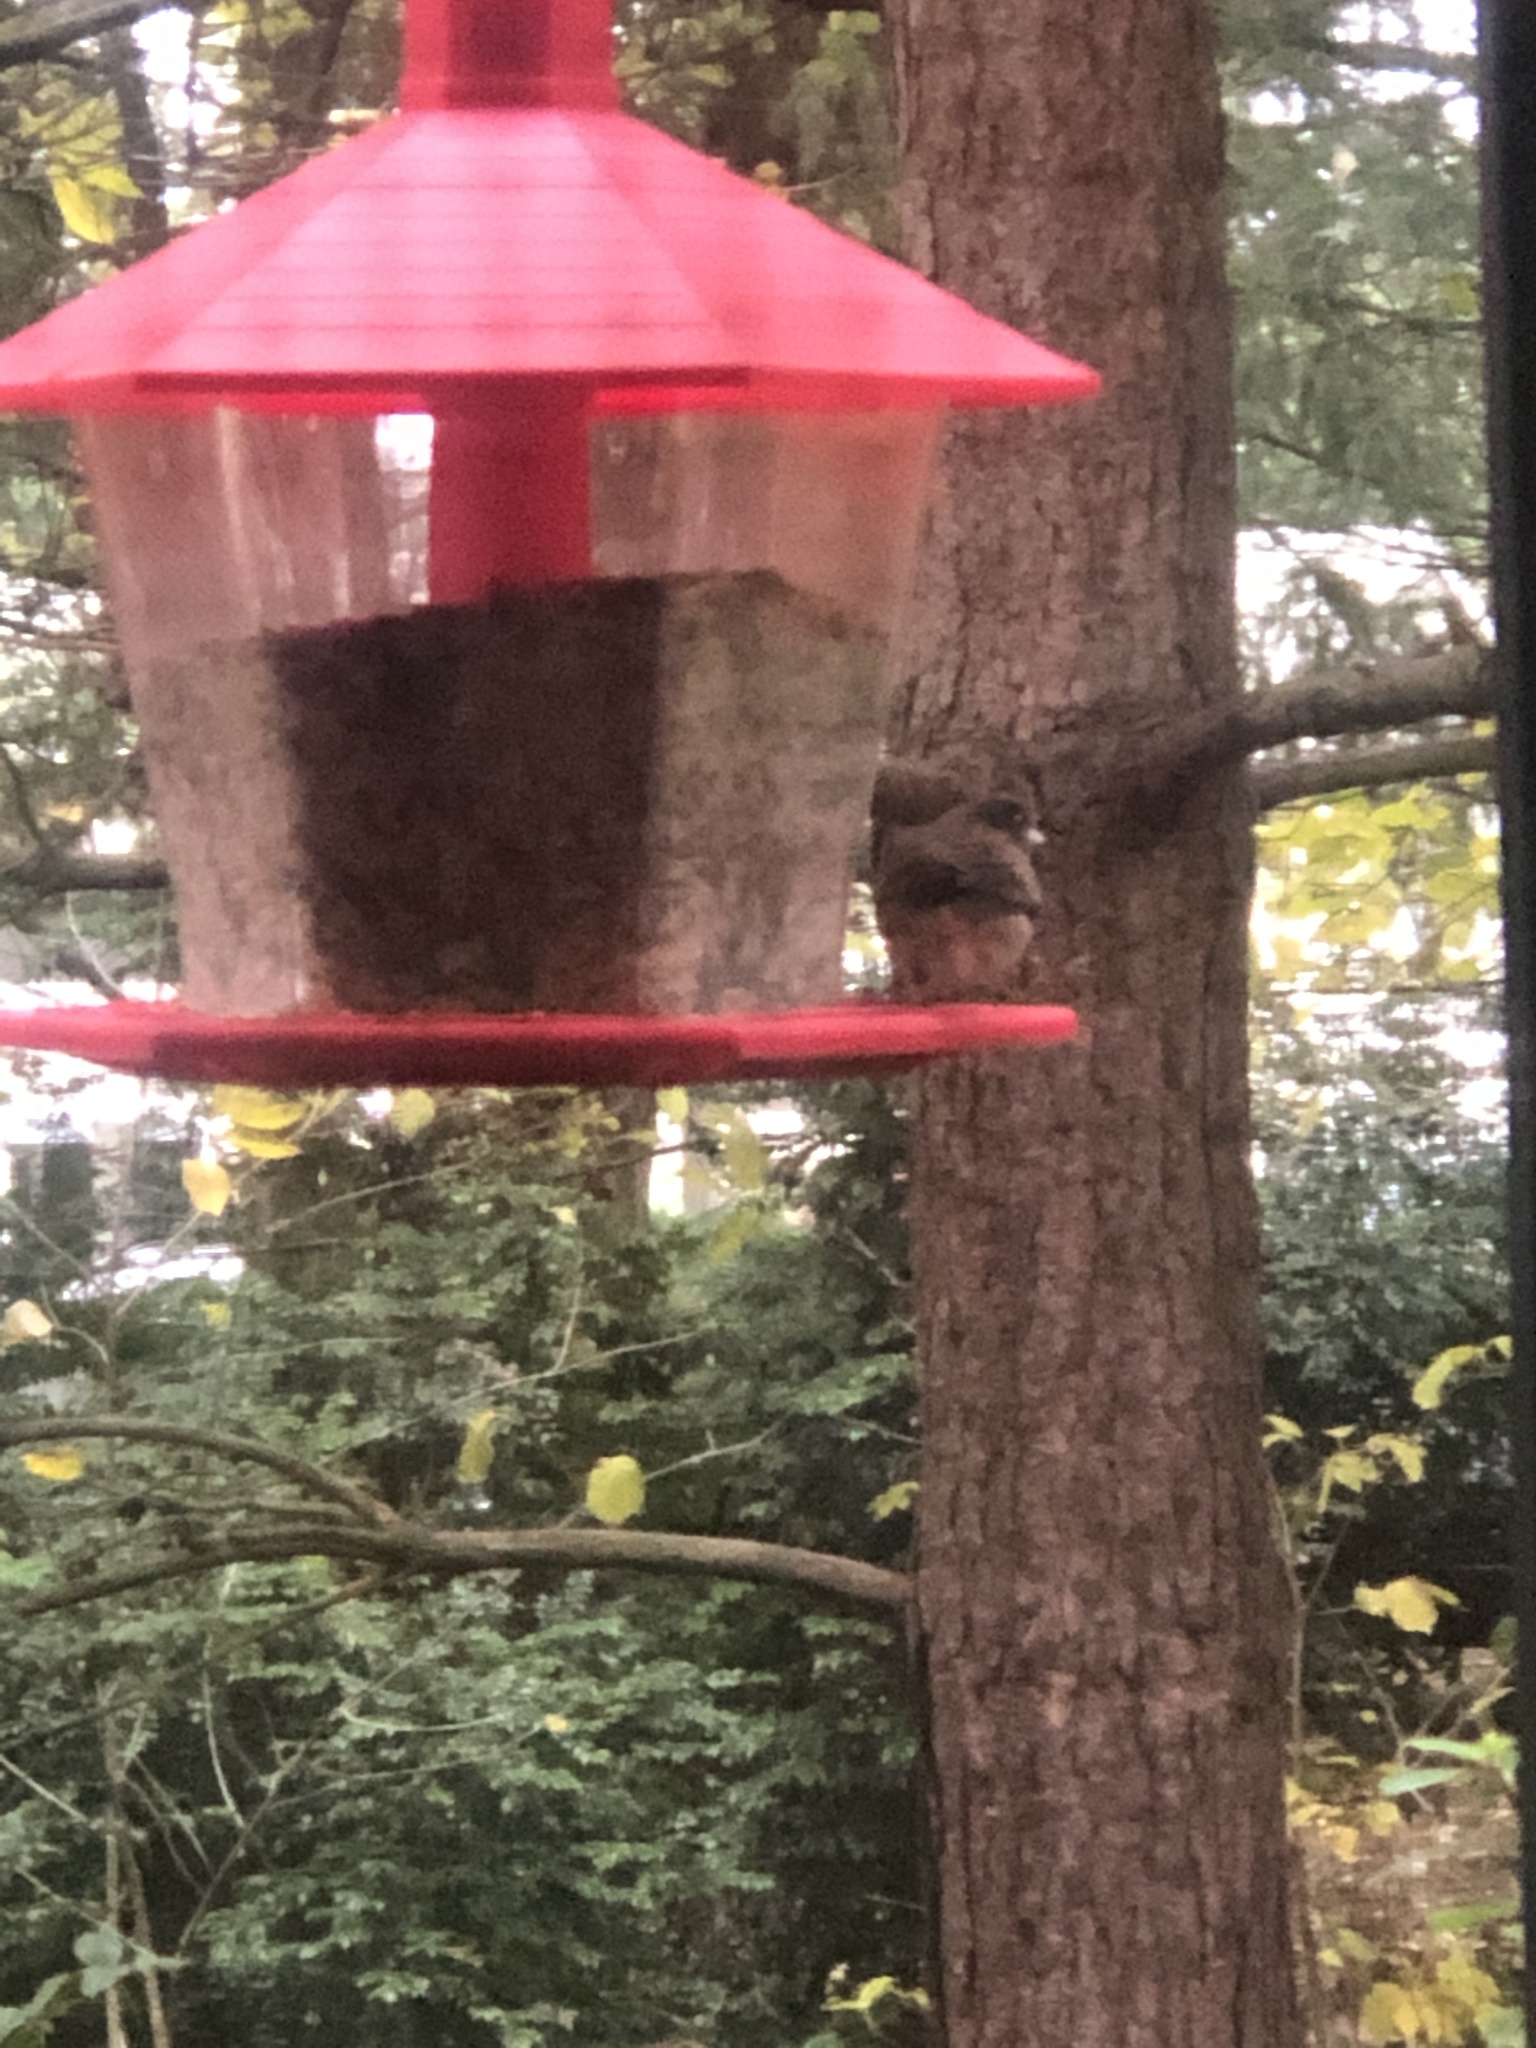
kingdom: Animalia
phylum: Chordata
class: Aves
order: Passeriformes
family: Passerellidae
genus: Junco
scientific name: Junco hyemalis
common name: Dark-eyed junco
